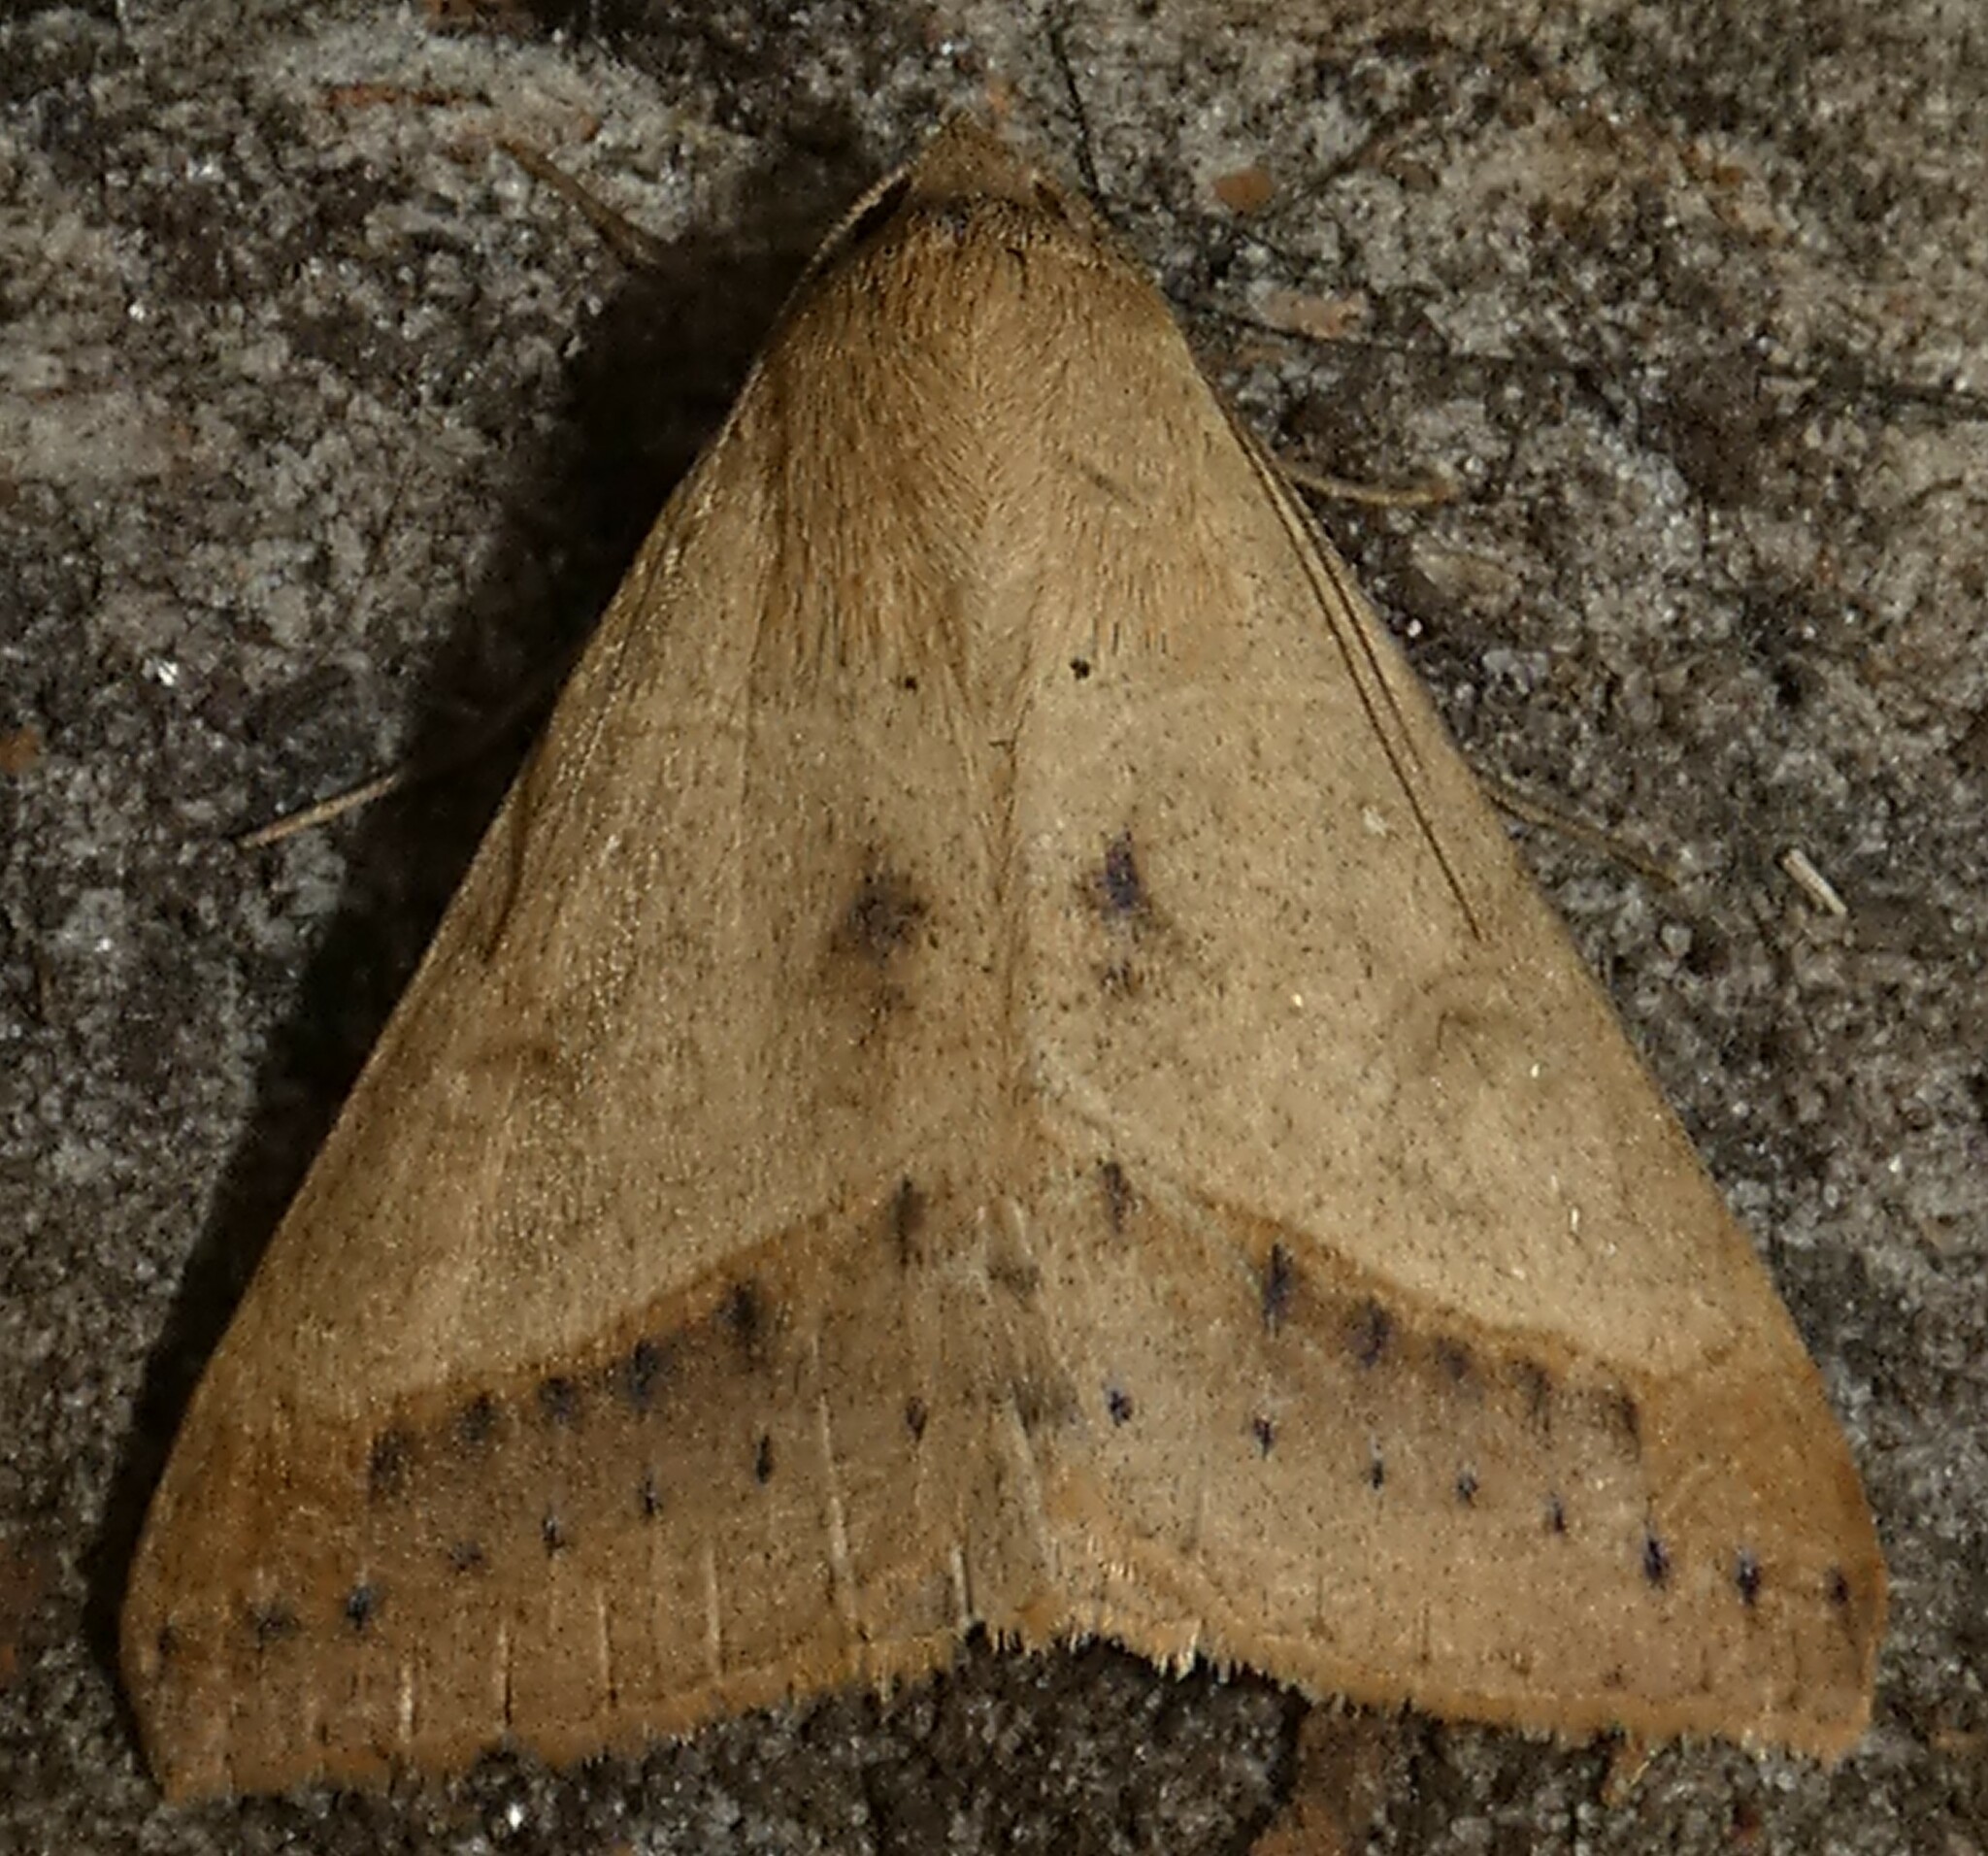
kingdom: Animalia
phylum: Arthropoda
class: Insecta
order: Lepidoptera
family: Erebidae
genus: Mocis
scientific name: Mocis disseverans
